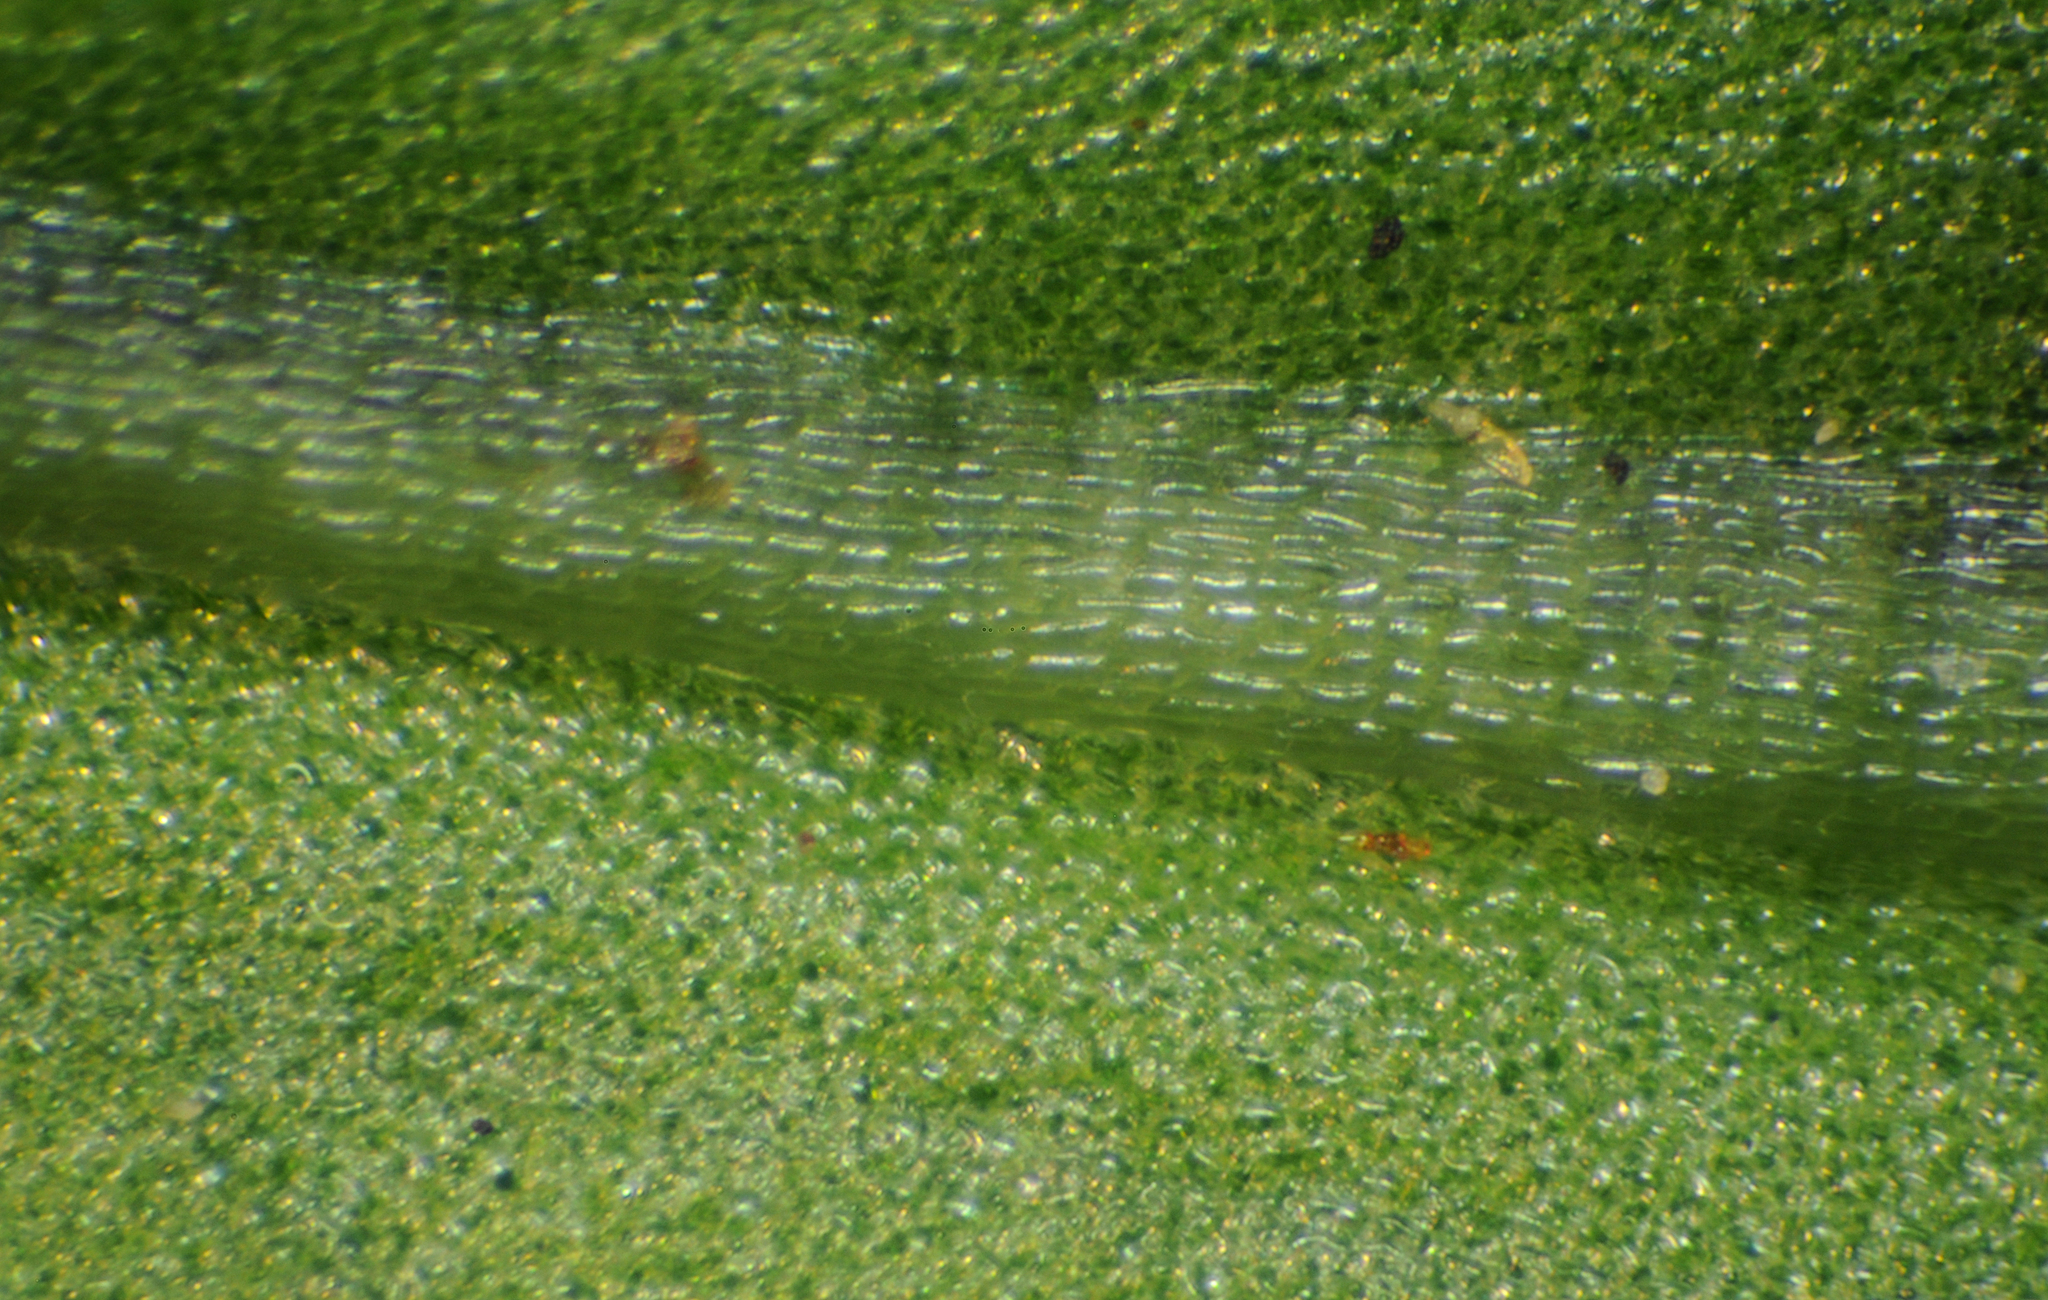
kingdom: Plantae
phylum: Tracheophyta
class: Polypodiopsida
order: Polypodiales
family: Polypodiaceae
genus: Polypodium
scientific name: Polypodium hesperium
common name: Western polypody
